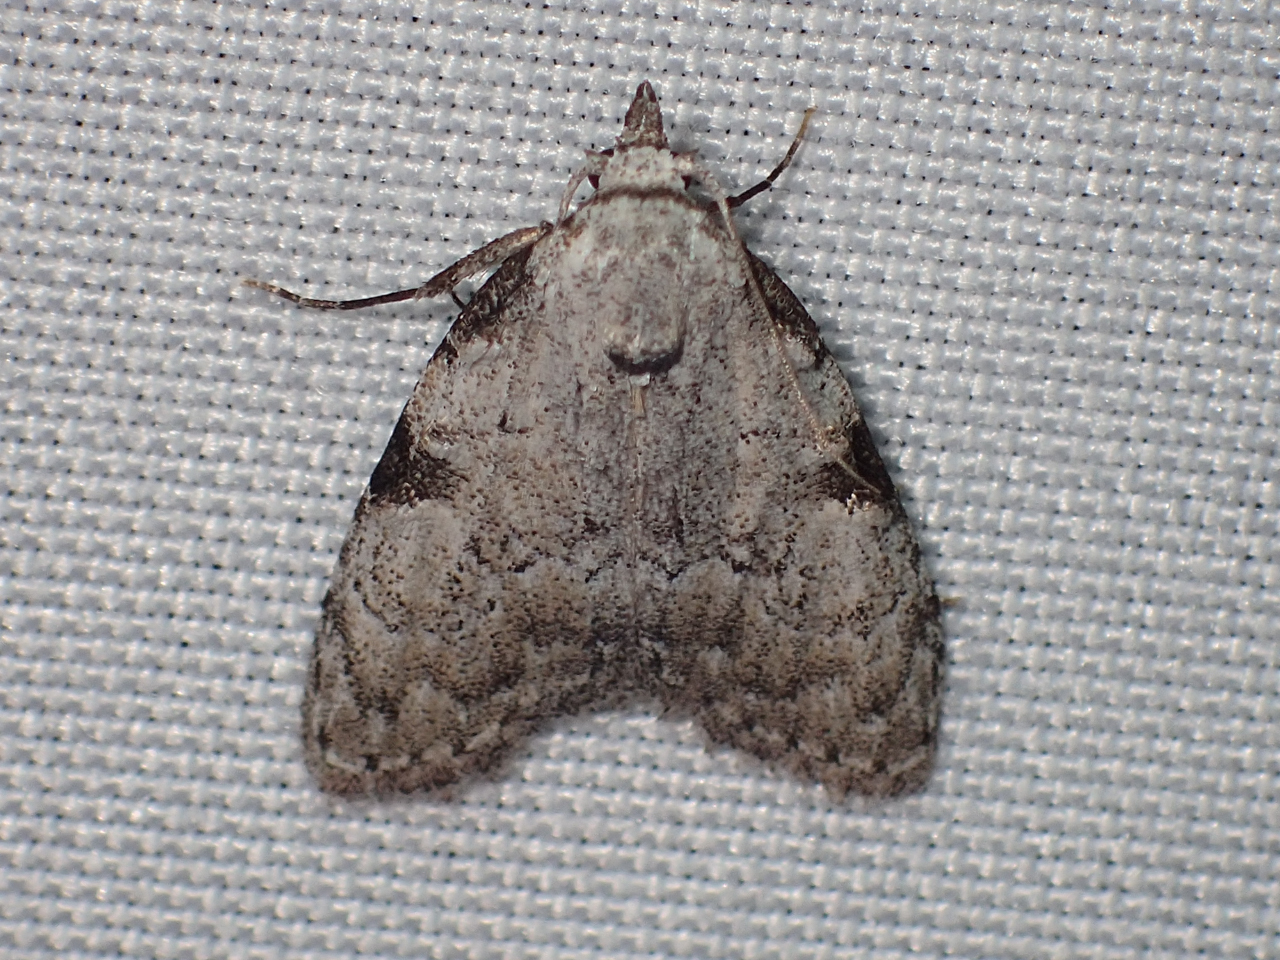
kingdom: Animalia
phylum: Arthropoda
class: Insecta
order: Lepidoptera
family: Nolidae
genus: Meganola
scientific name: Meganola minuscula
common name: Confused meganola moth
